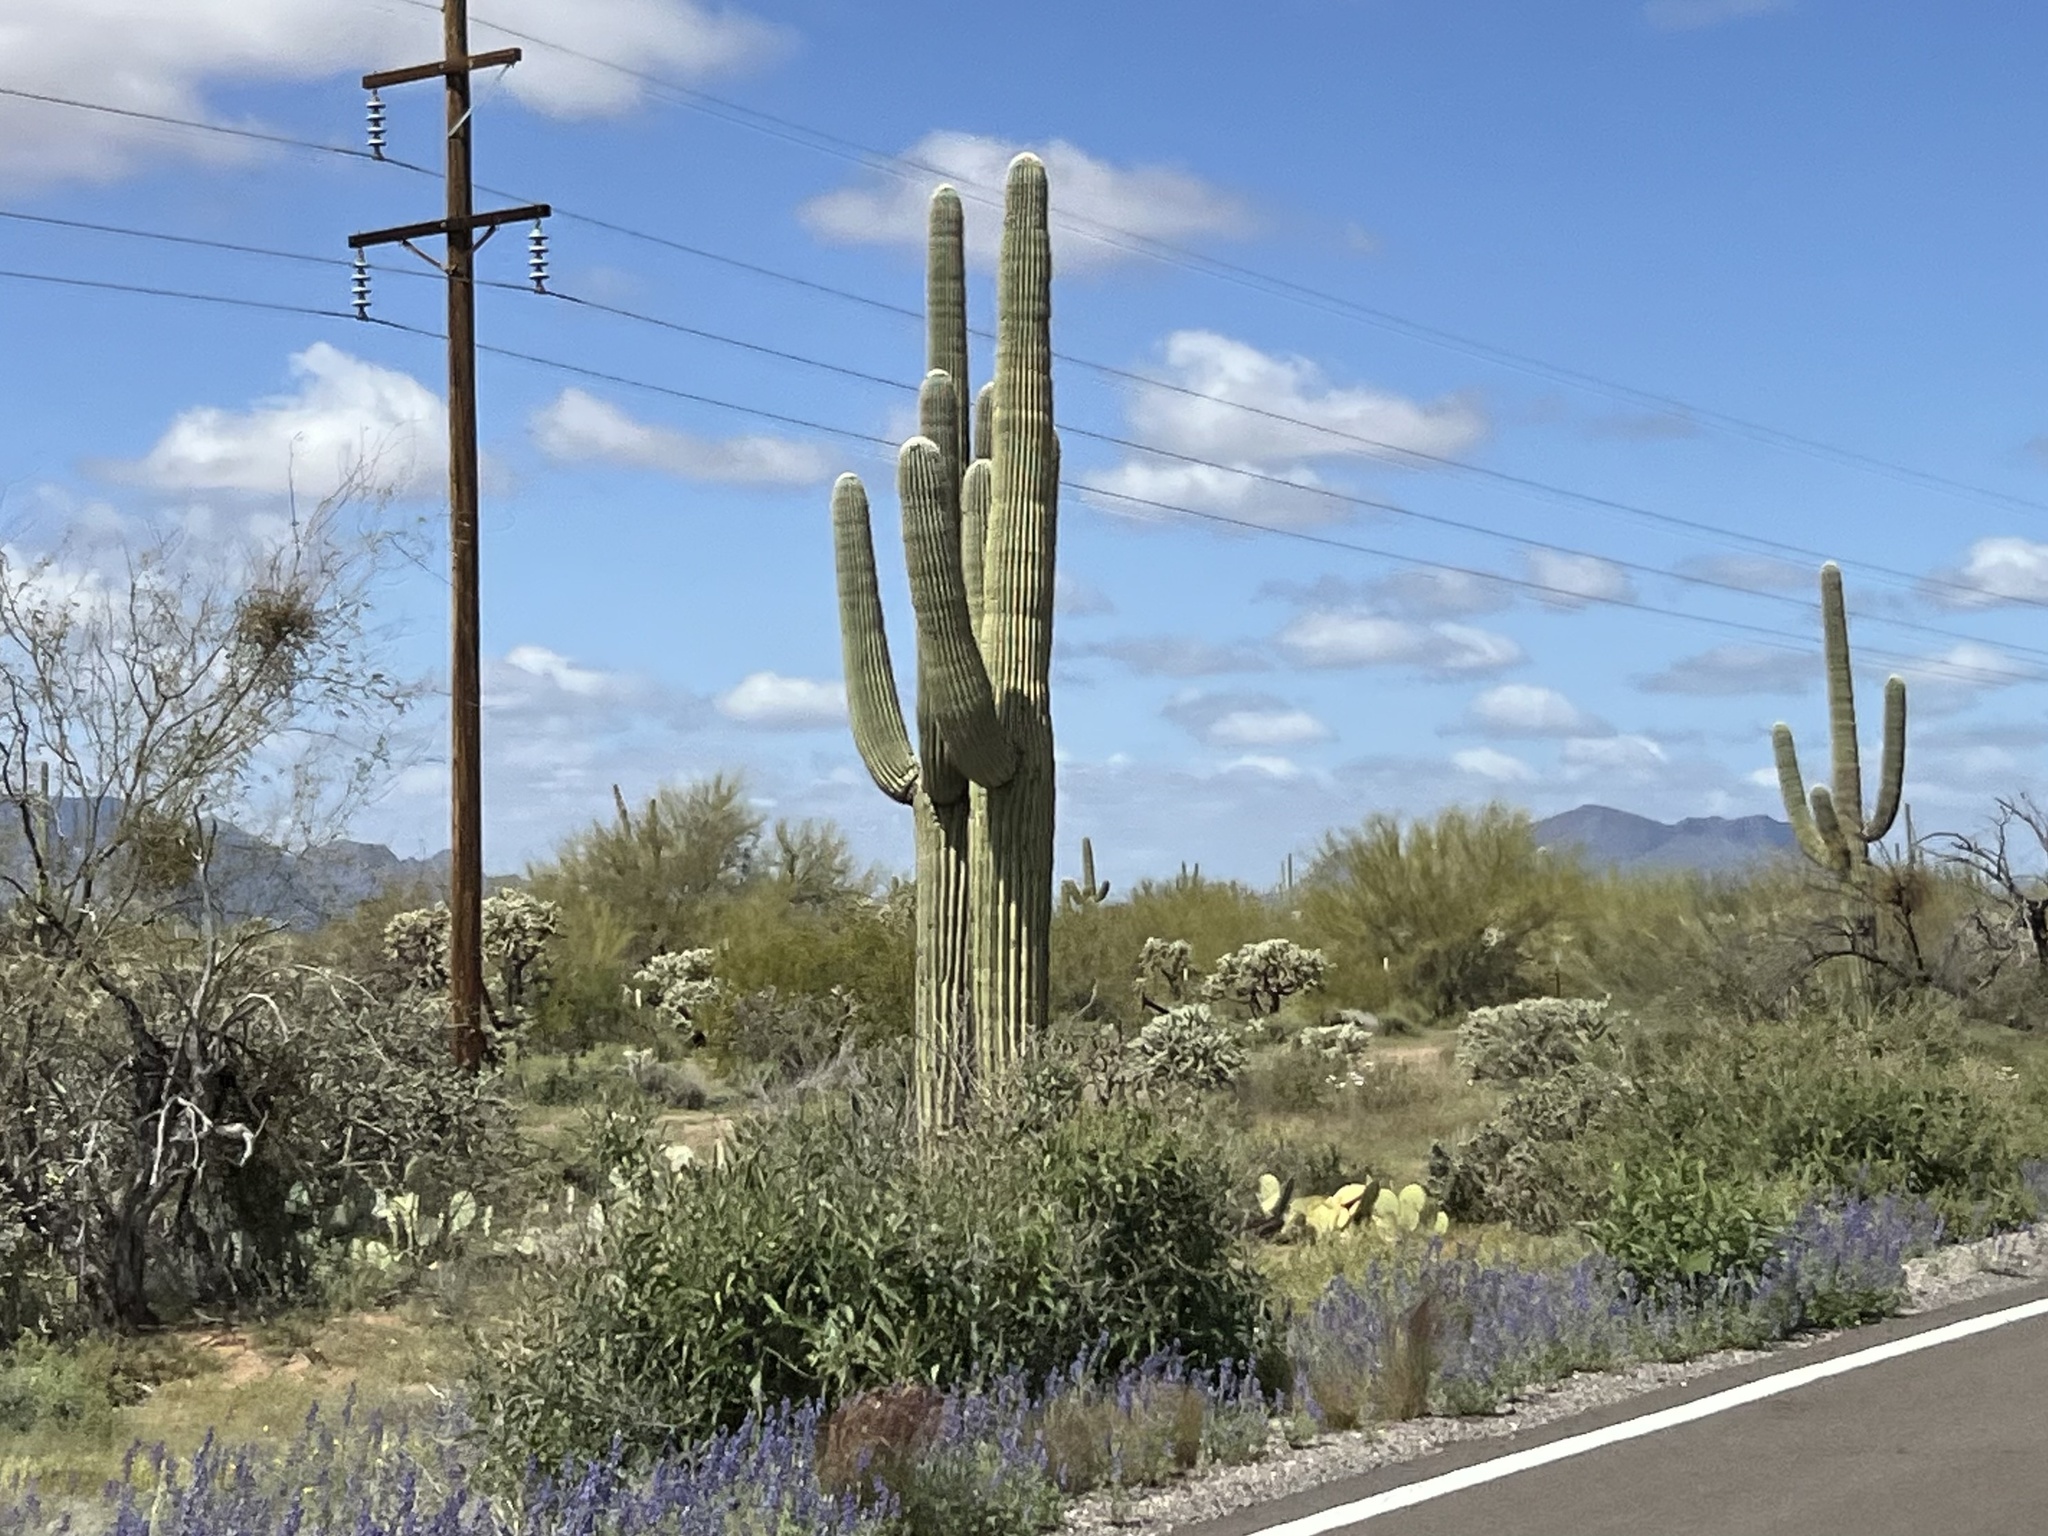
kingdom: Plantae
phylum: Tracheophyta
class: Magnoliopsida
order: Caryophyllales
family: Cactaceae
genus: Carnegiea
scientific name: Carnegiea gigantea
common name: Saguaro
